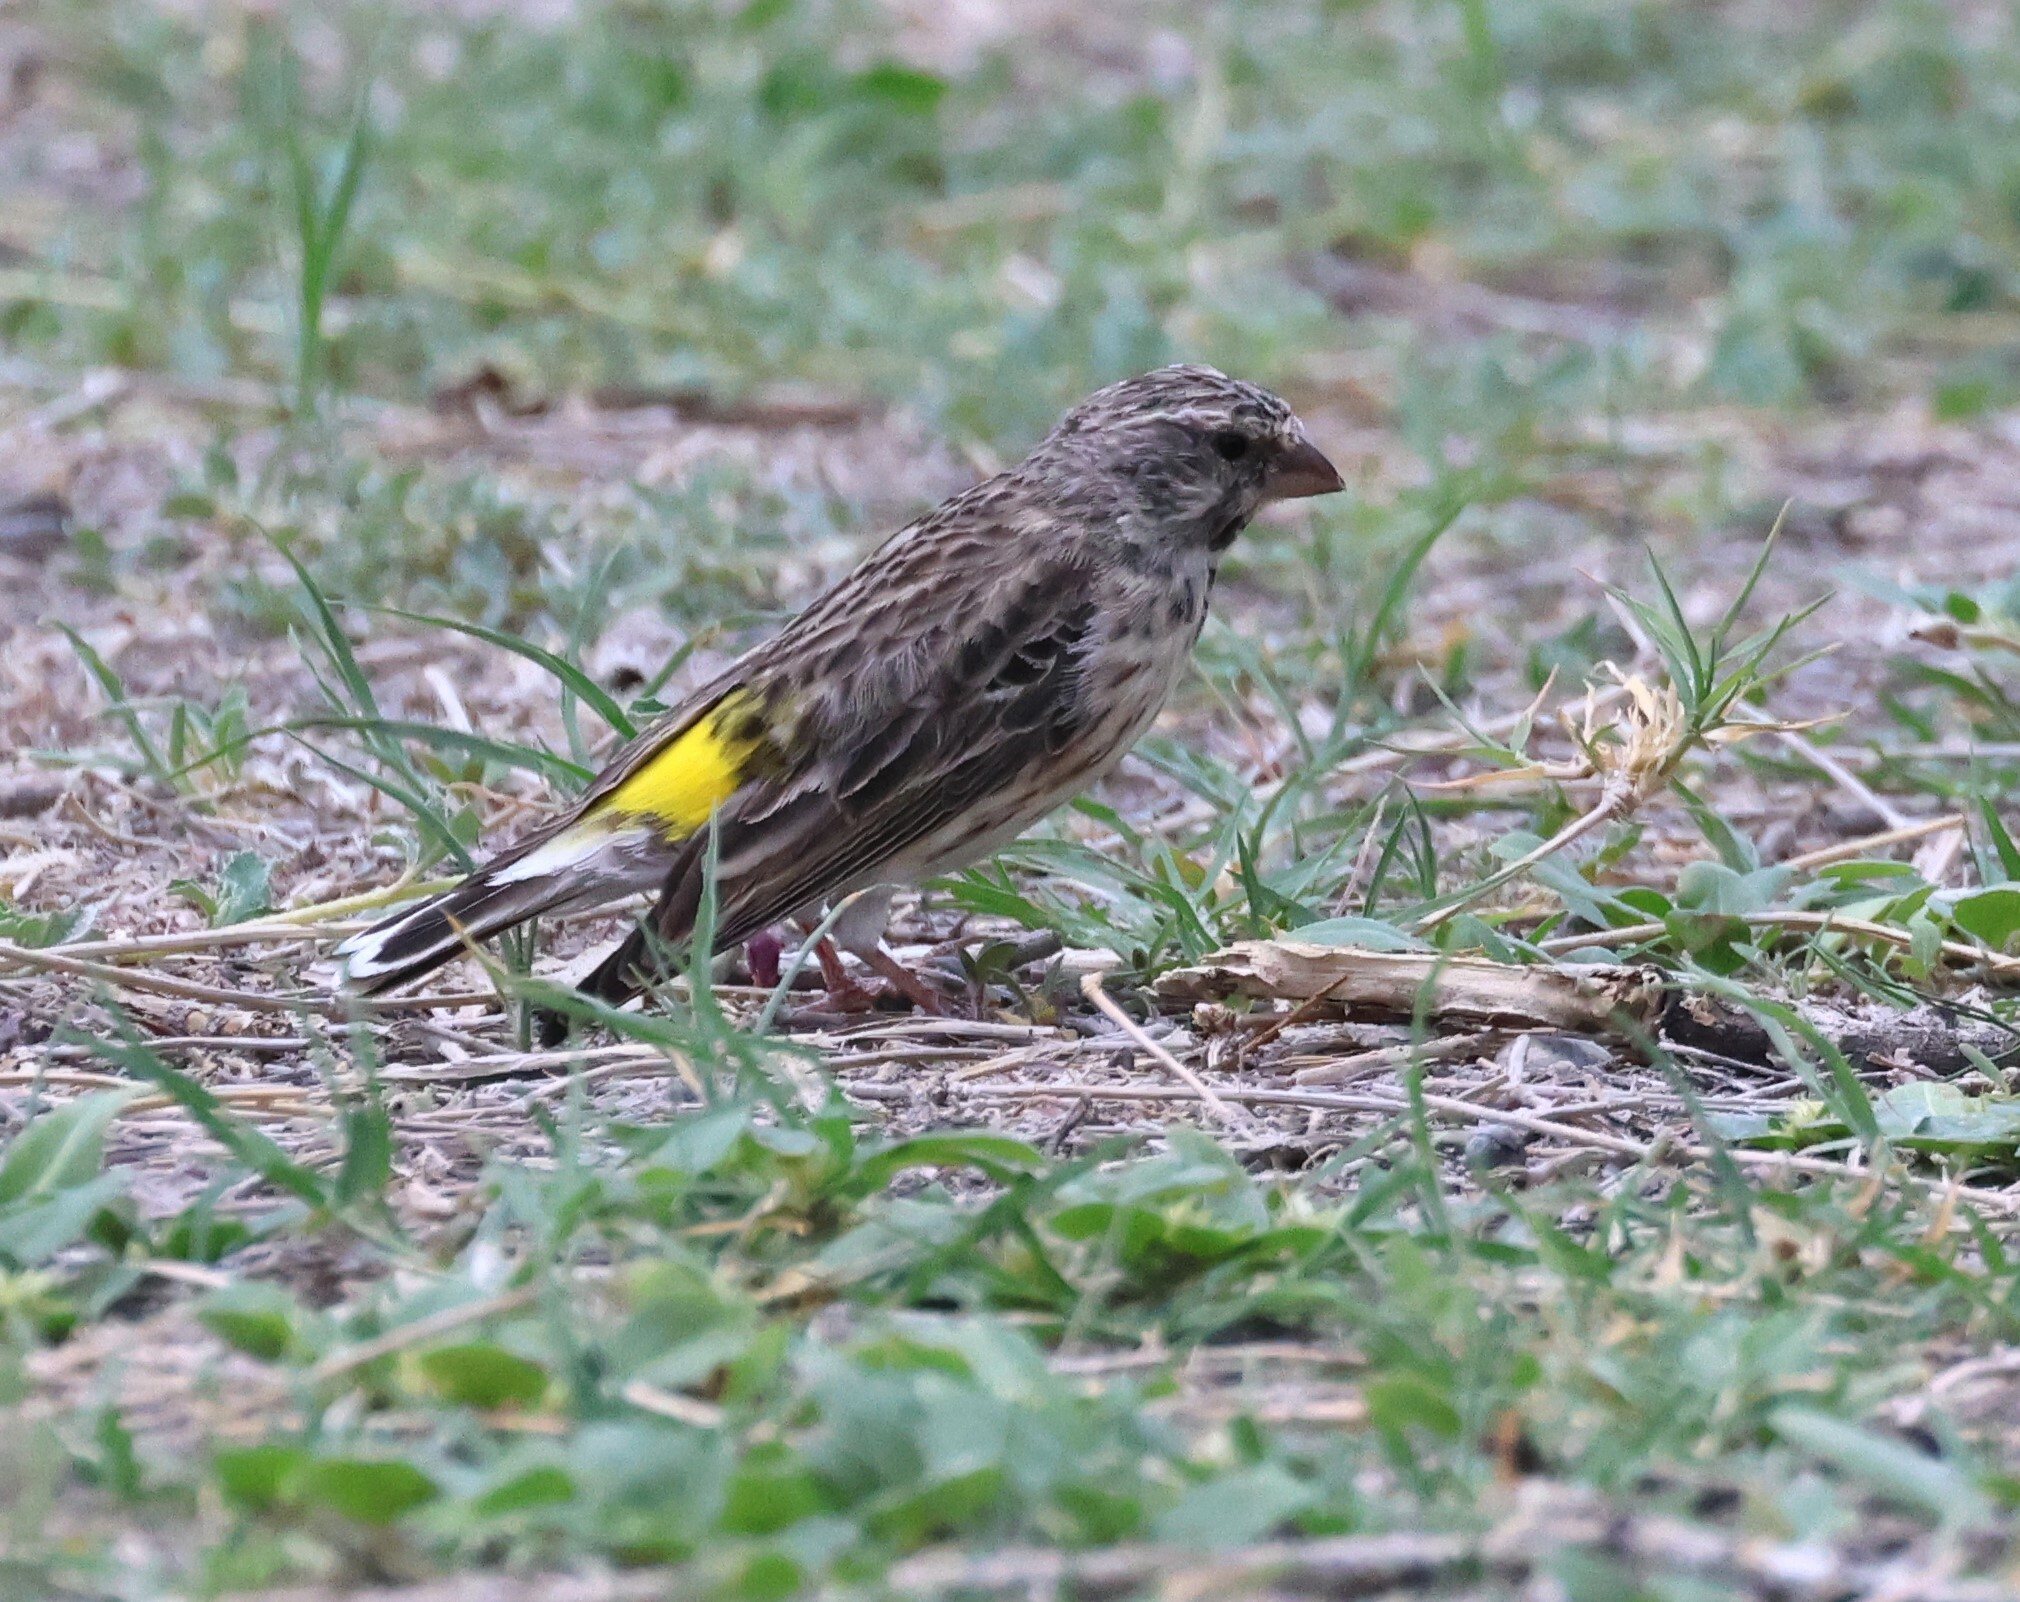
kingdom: Animalia
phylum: Chordata
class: Aves
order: Passeriformes
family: Fringillidae
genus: Crithagra
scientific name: Crithagra atrogularis
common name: Black-throated canary
